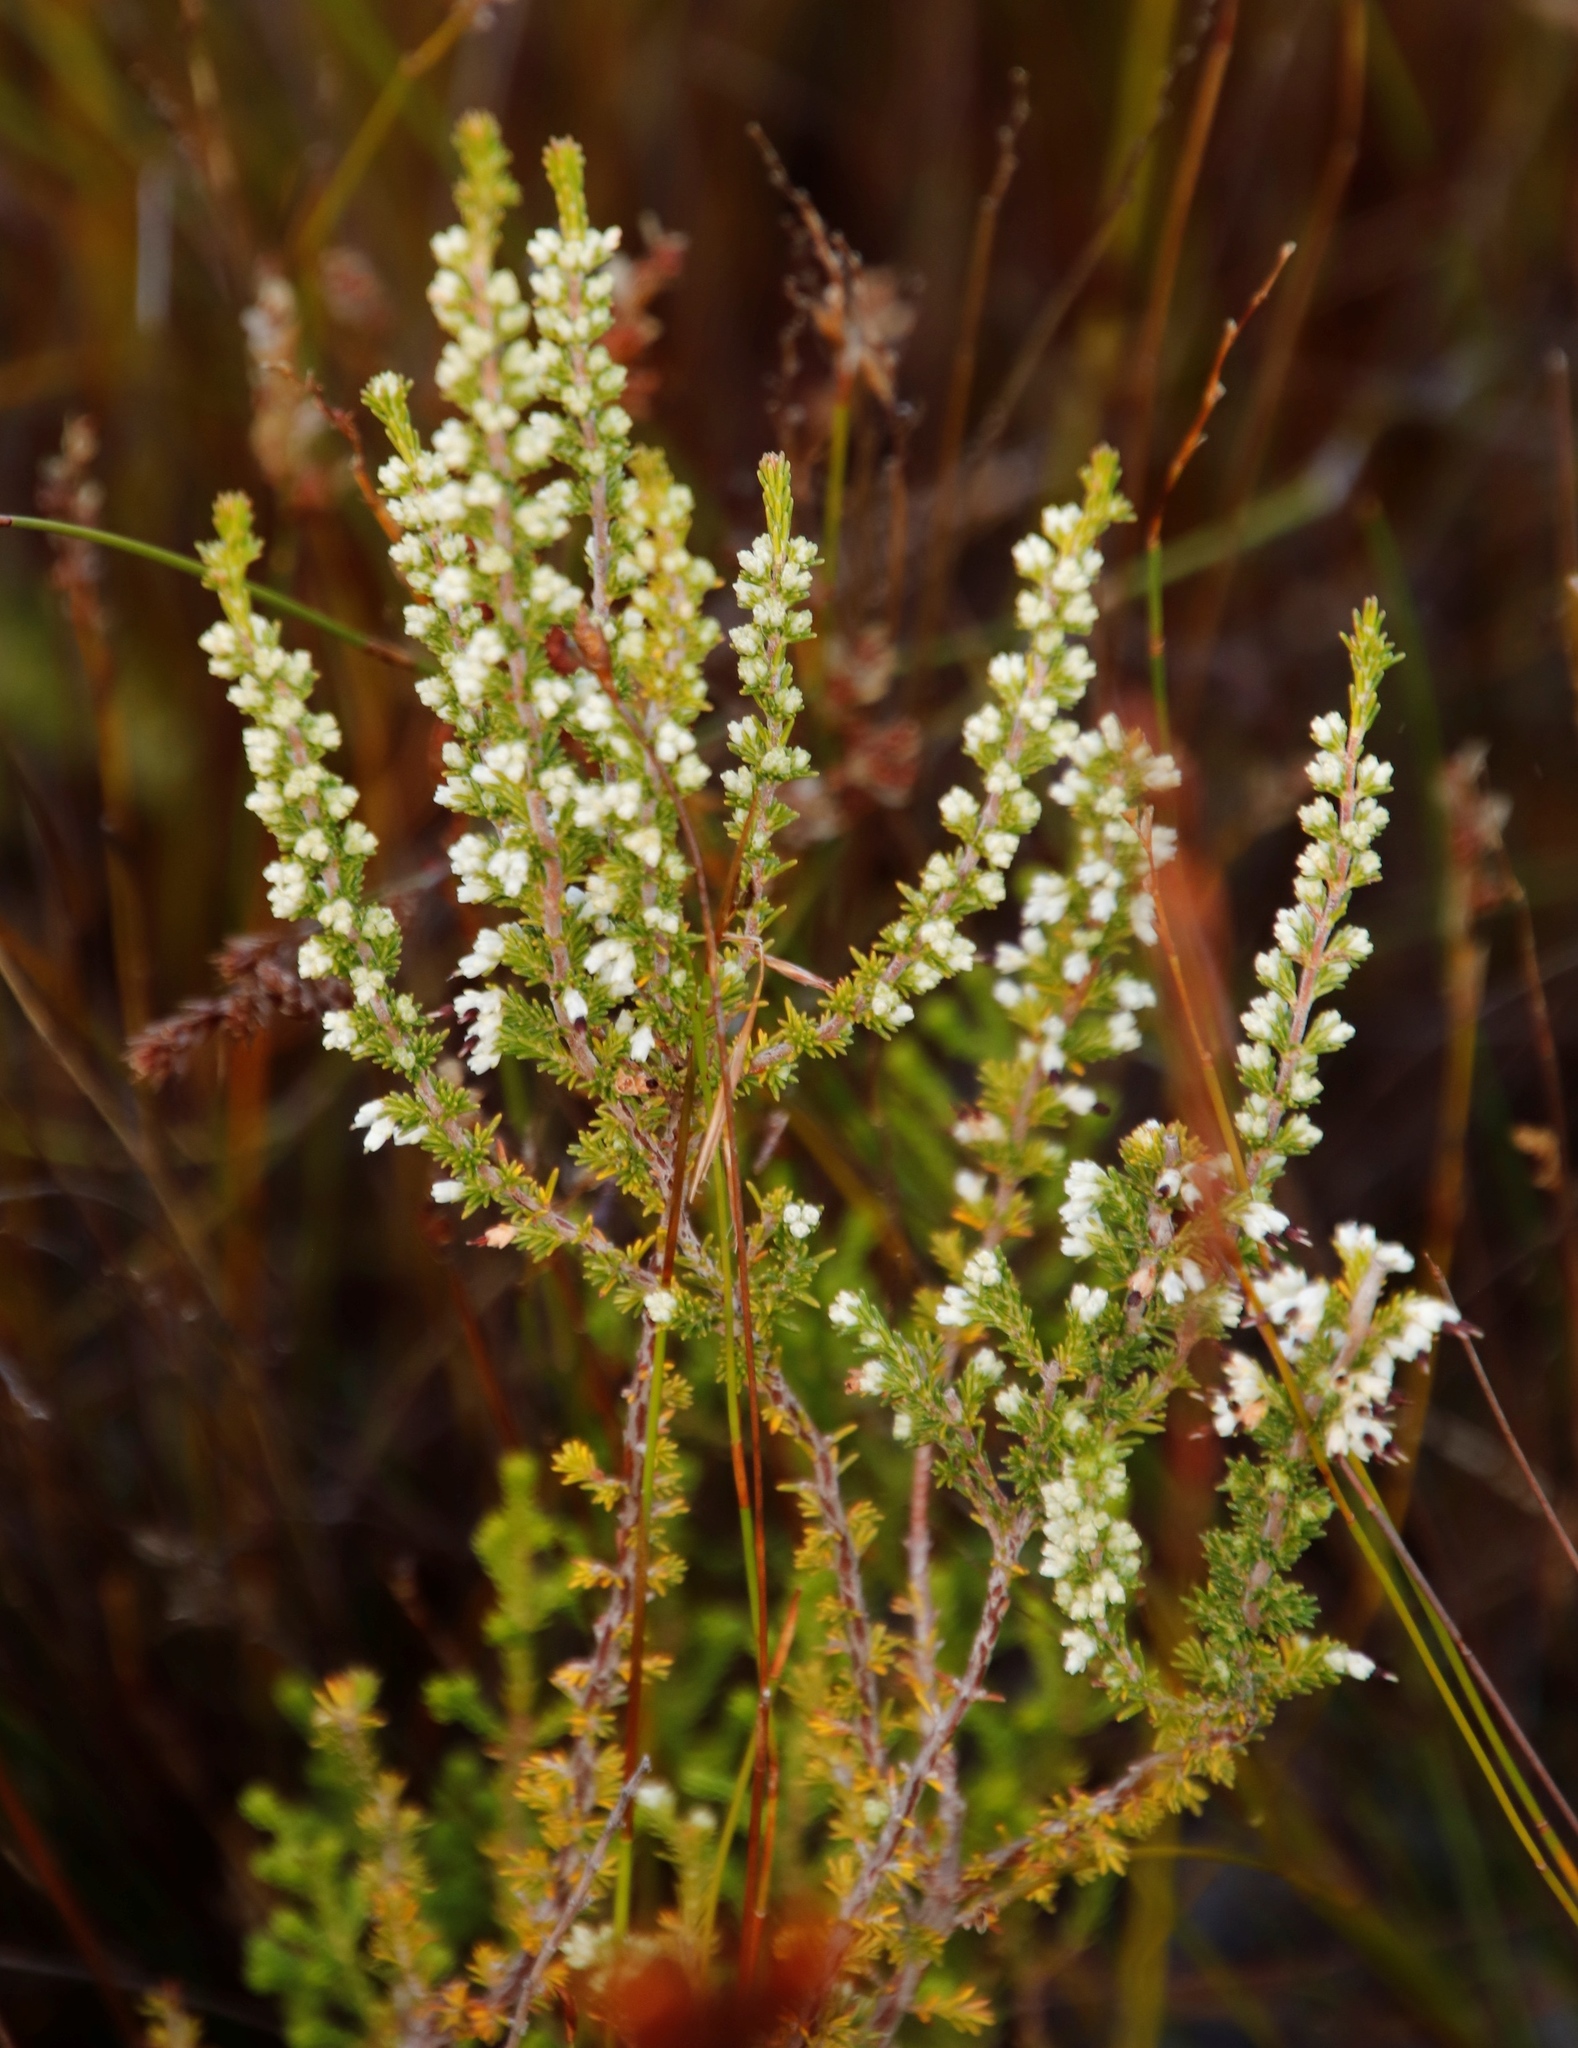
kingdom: Plantae
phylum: Tracheophyta
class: Magnoliopsida
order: Ericales
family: Ericaceae
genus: Erica
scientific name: Erica imbricata
